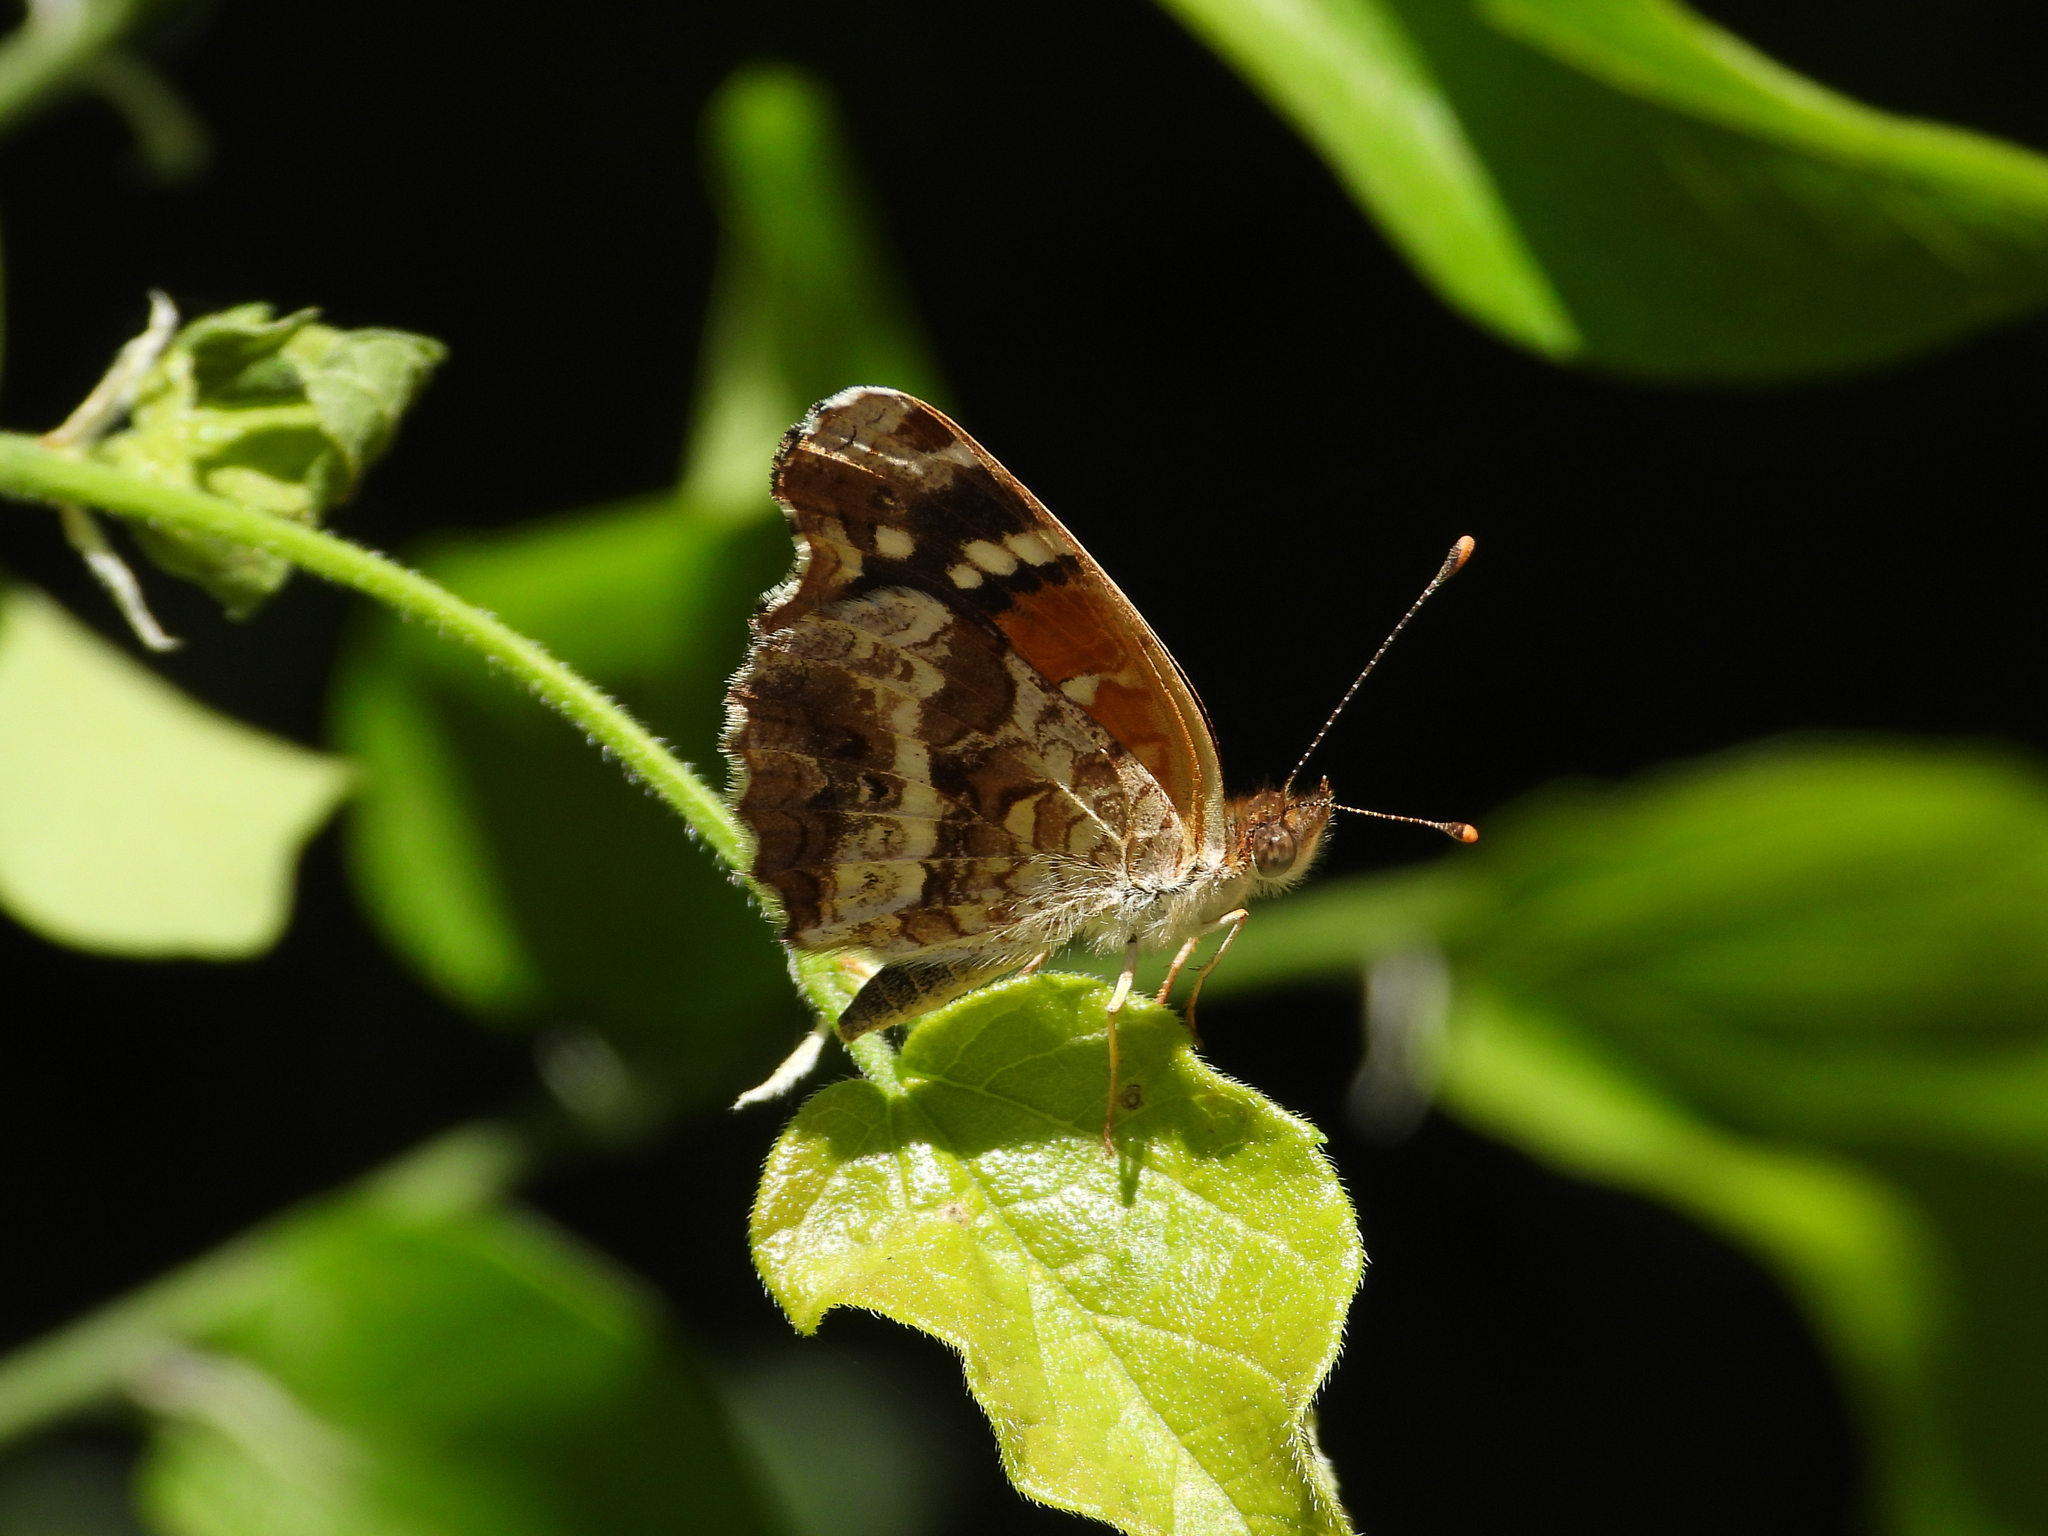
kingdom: Animalia
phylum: Arthropoda
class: Insecta
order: Lepidoptera
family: Nymphalidae
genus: Anthanassa
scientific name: Anthanassa texana
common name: Texan crescent
